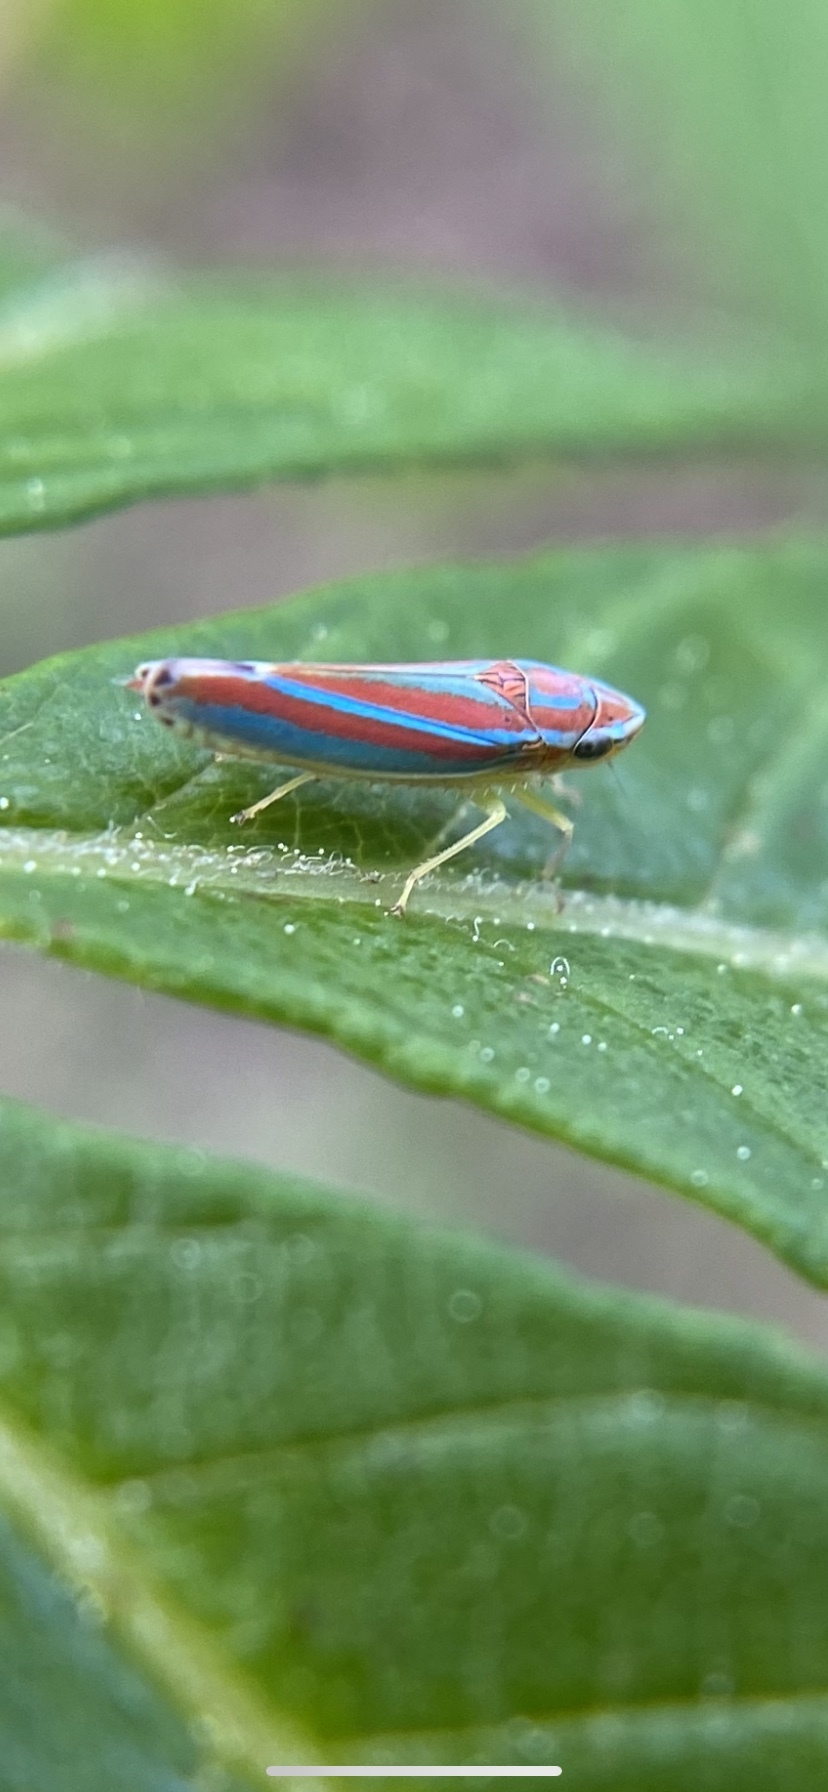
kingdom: Animalia
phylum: Arthropoda
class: Insecta
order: Hemiptera
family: Cicadellidae
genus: Graphocephala
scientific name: Graphocephala versuta
